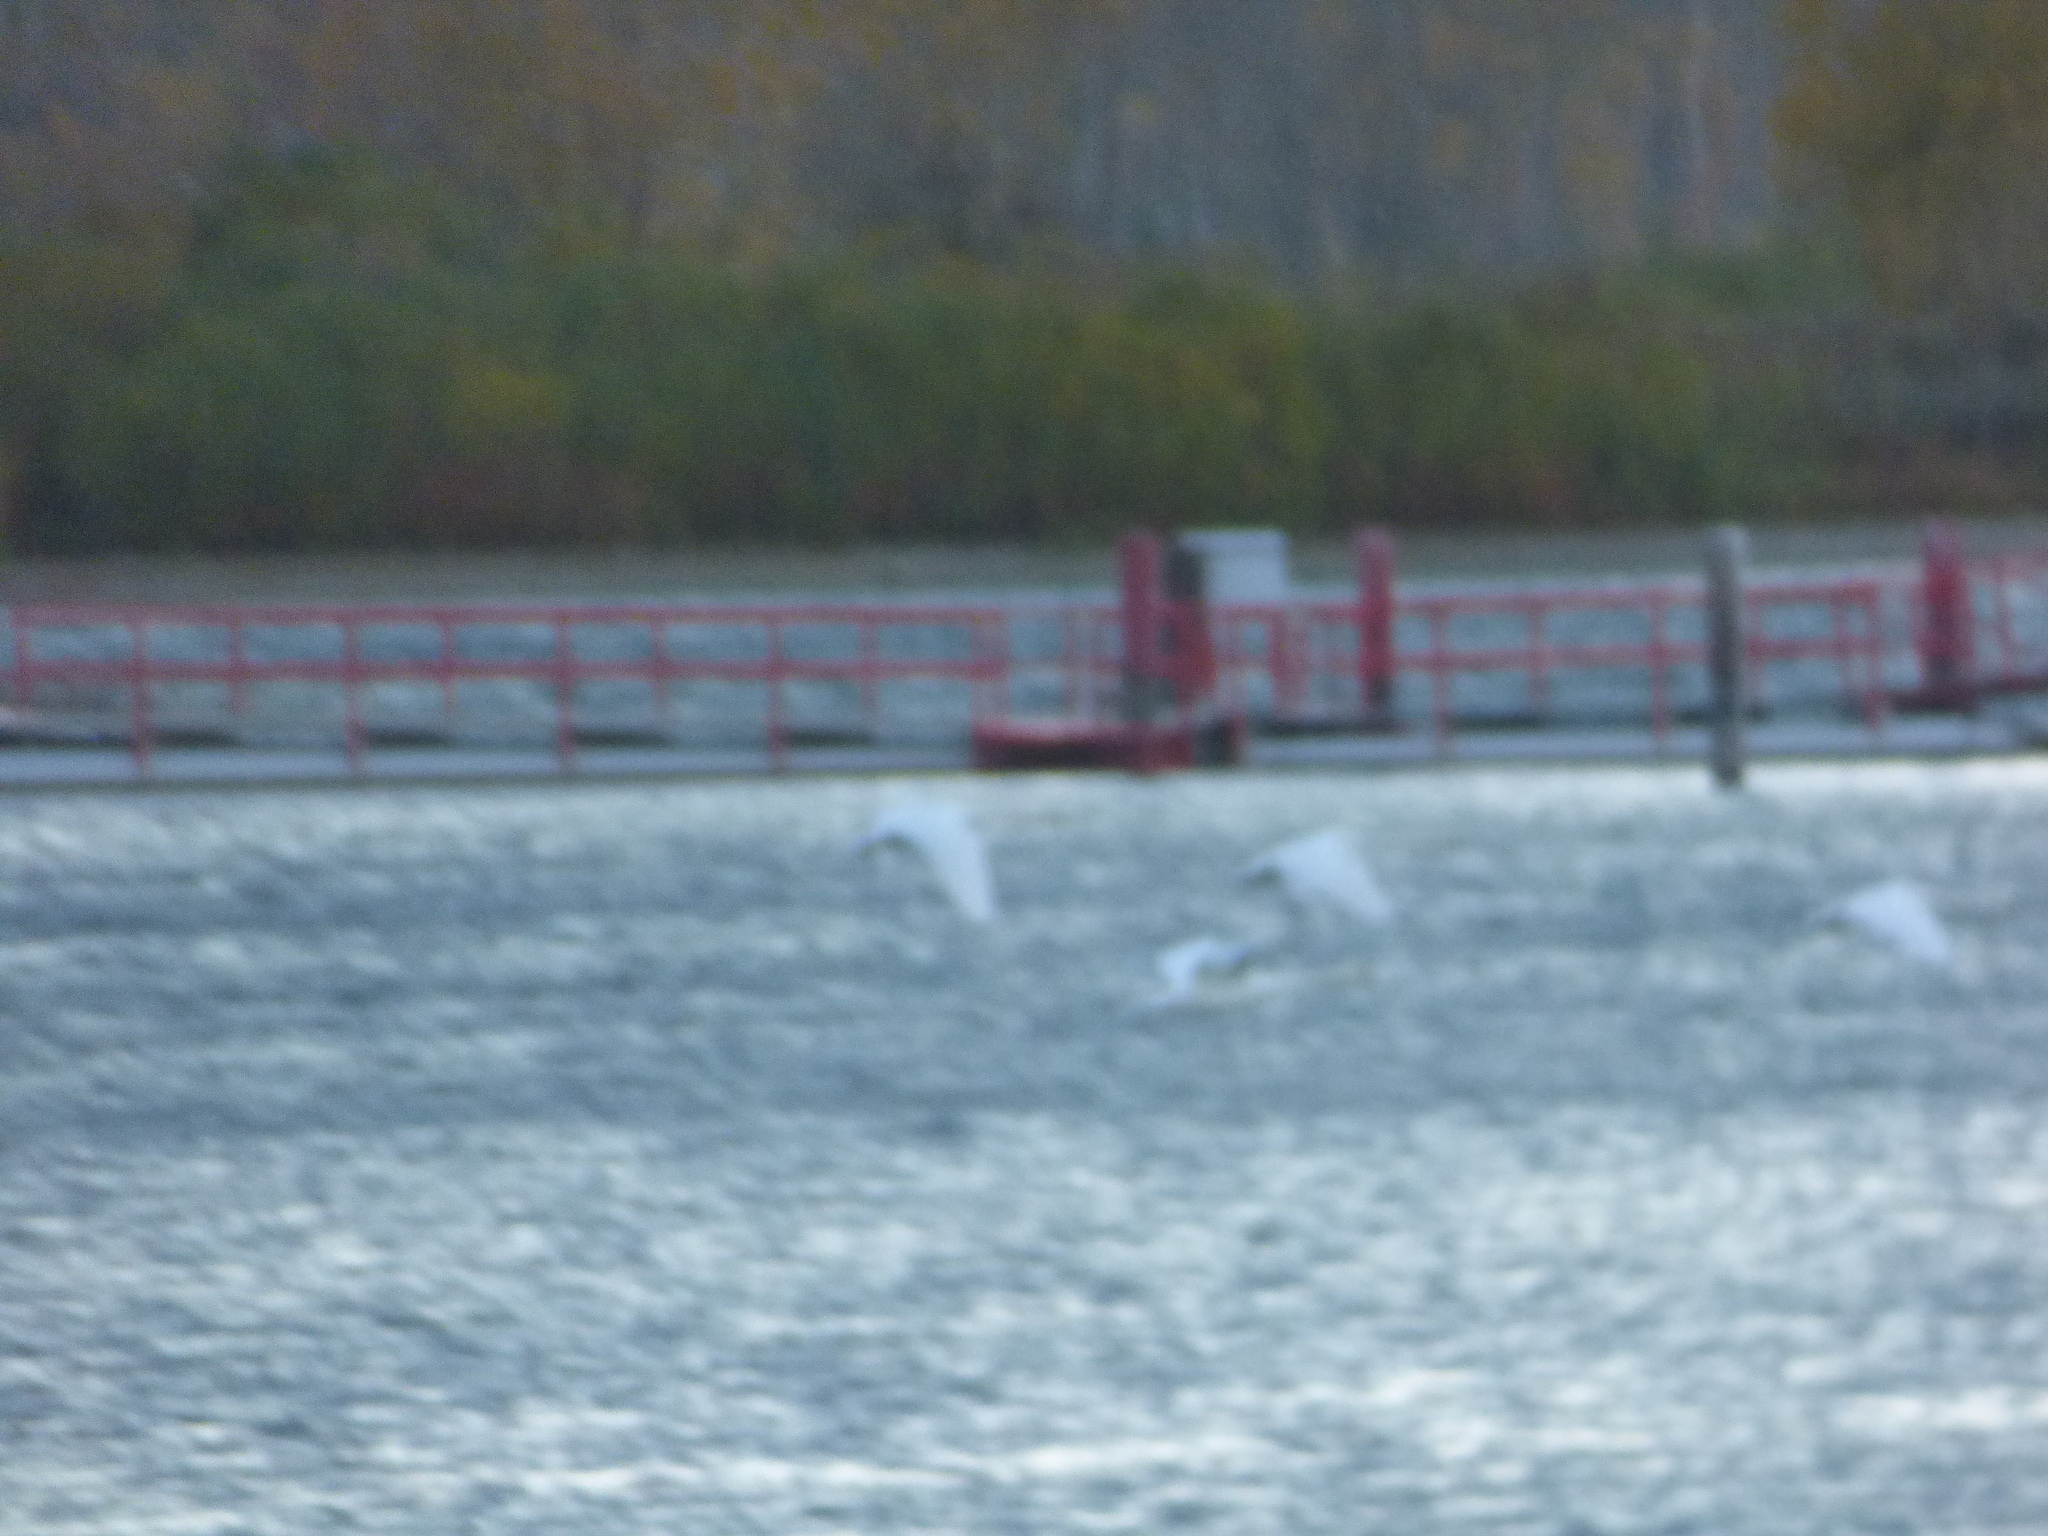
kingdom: Animalia
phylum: Chordata
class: Aves
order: Anseriformes
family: Anatidae
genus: Cygnus
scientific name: Cygnus olor
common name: Mute swan
